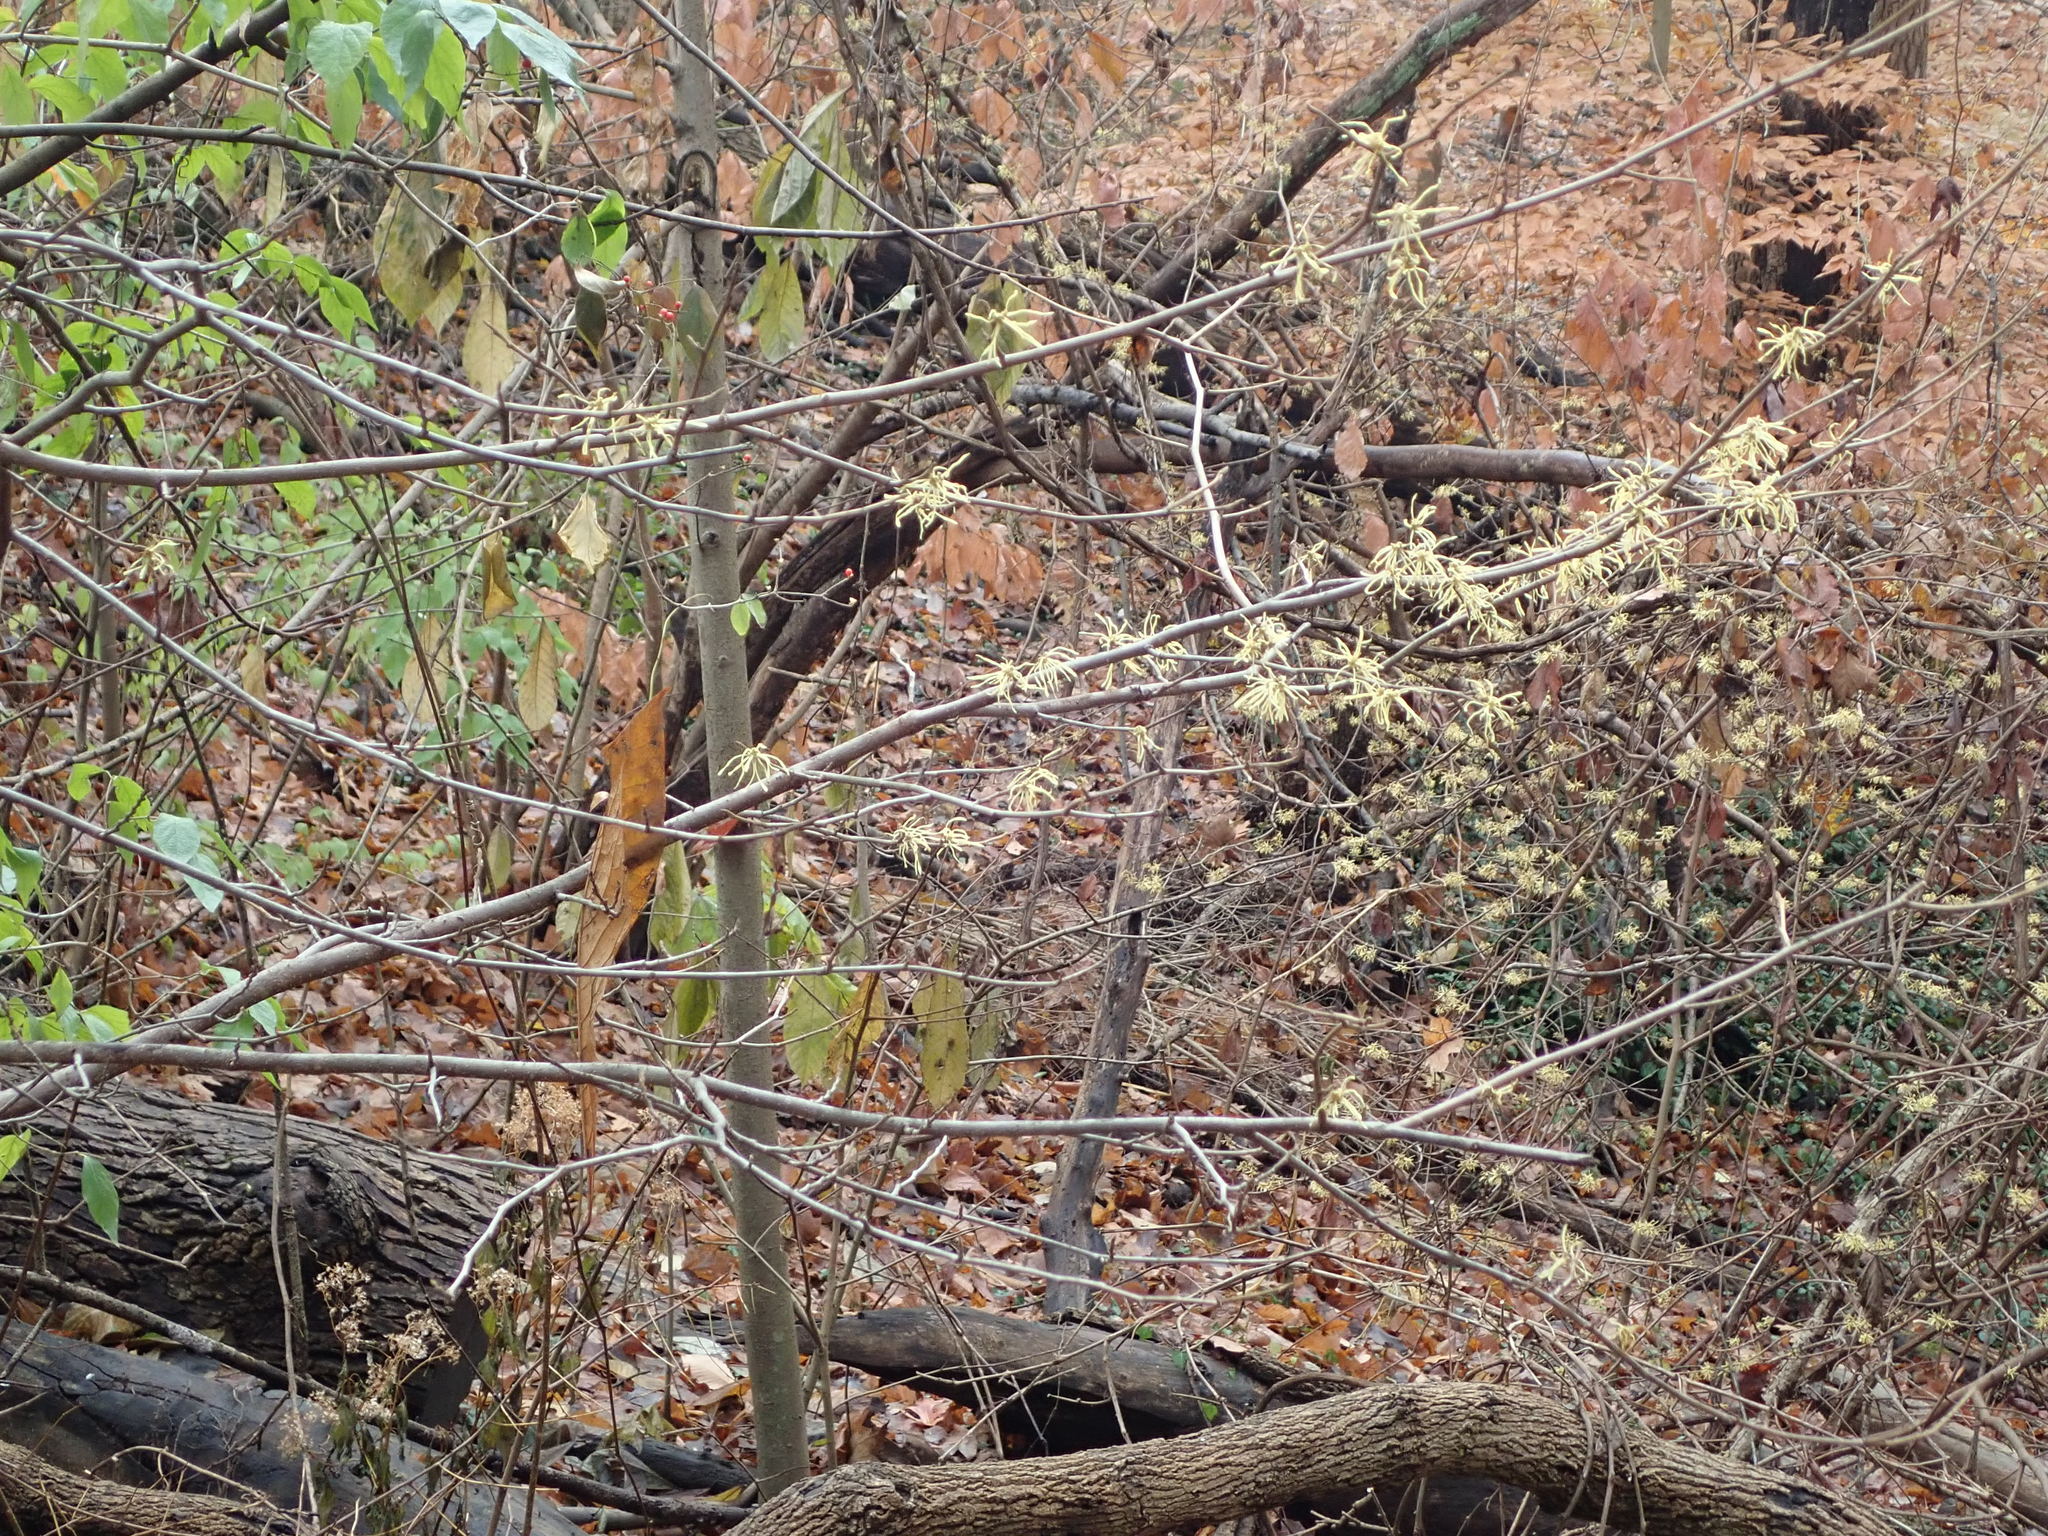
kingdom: Plantae
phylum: Tracheophyta
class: Magnoliopsida
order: Saxifragales
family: Hamamelidaceae
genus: Hamamelis
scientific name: Hamamelis virginiana
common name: Witch-hazel
